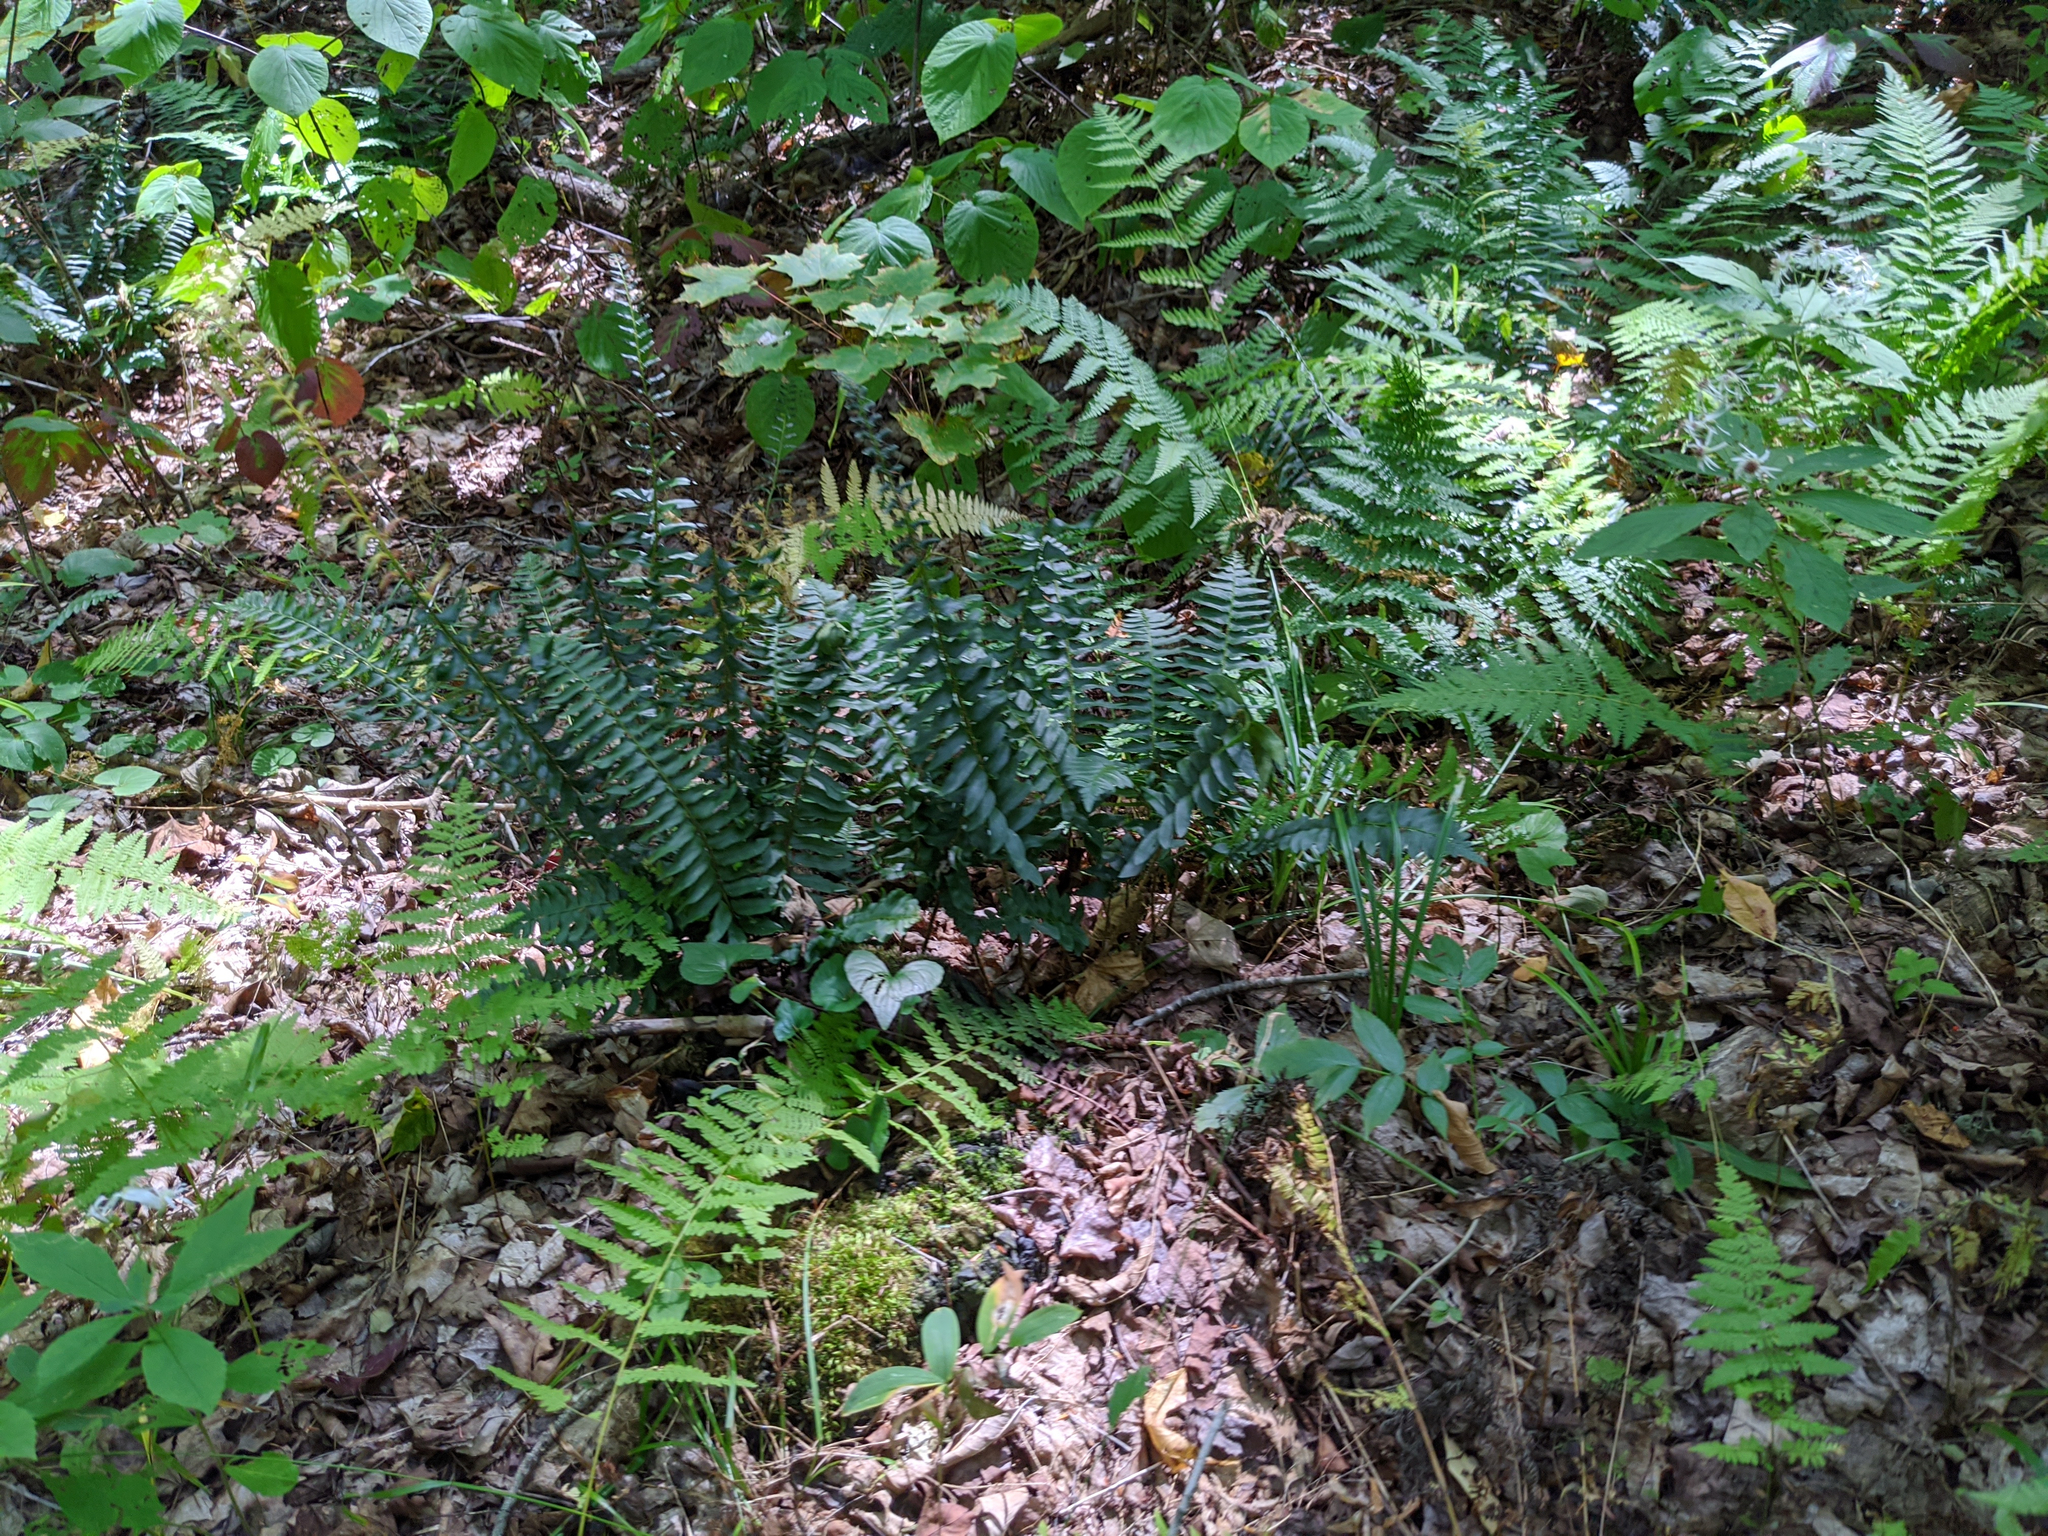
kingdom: Plantae
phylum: Tracheophyta
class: Polypodiopsida
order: Polypodiales
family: Dryopteridaceae
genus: Polystichum
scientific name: Polystichum acrostichoides
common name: Christmas fern
